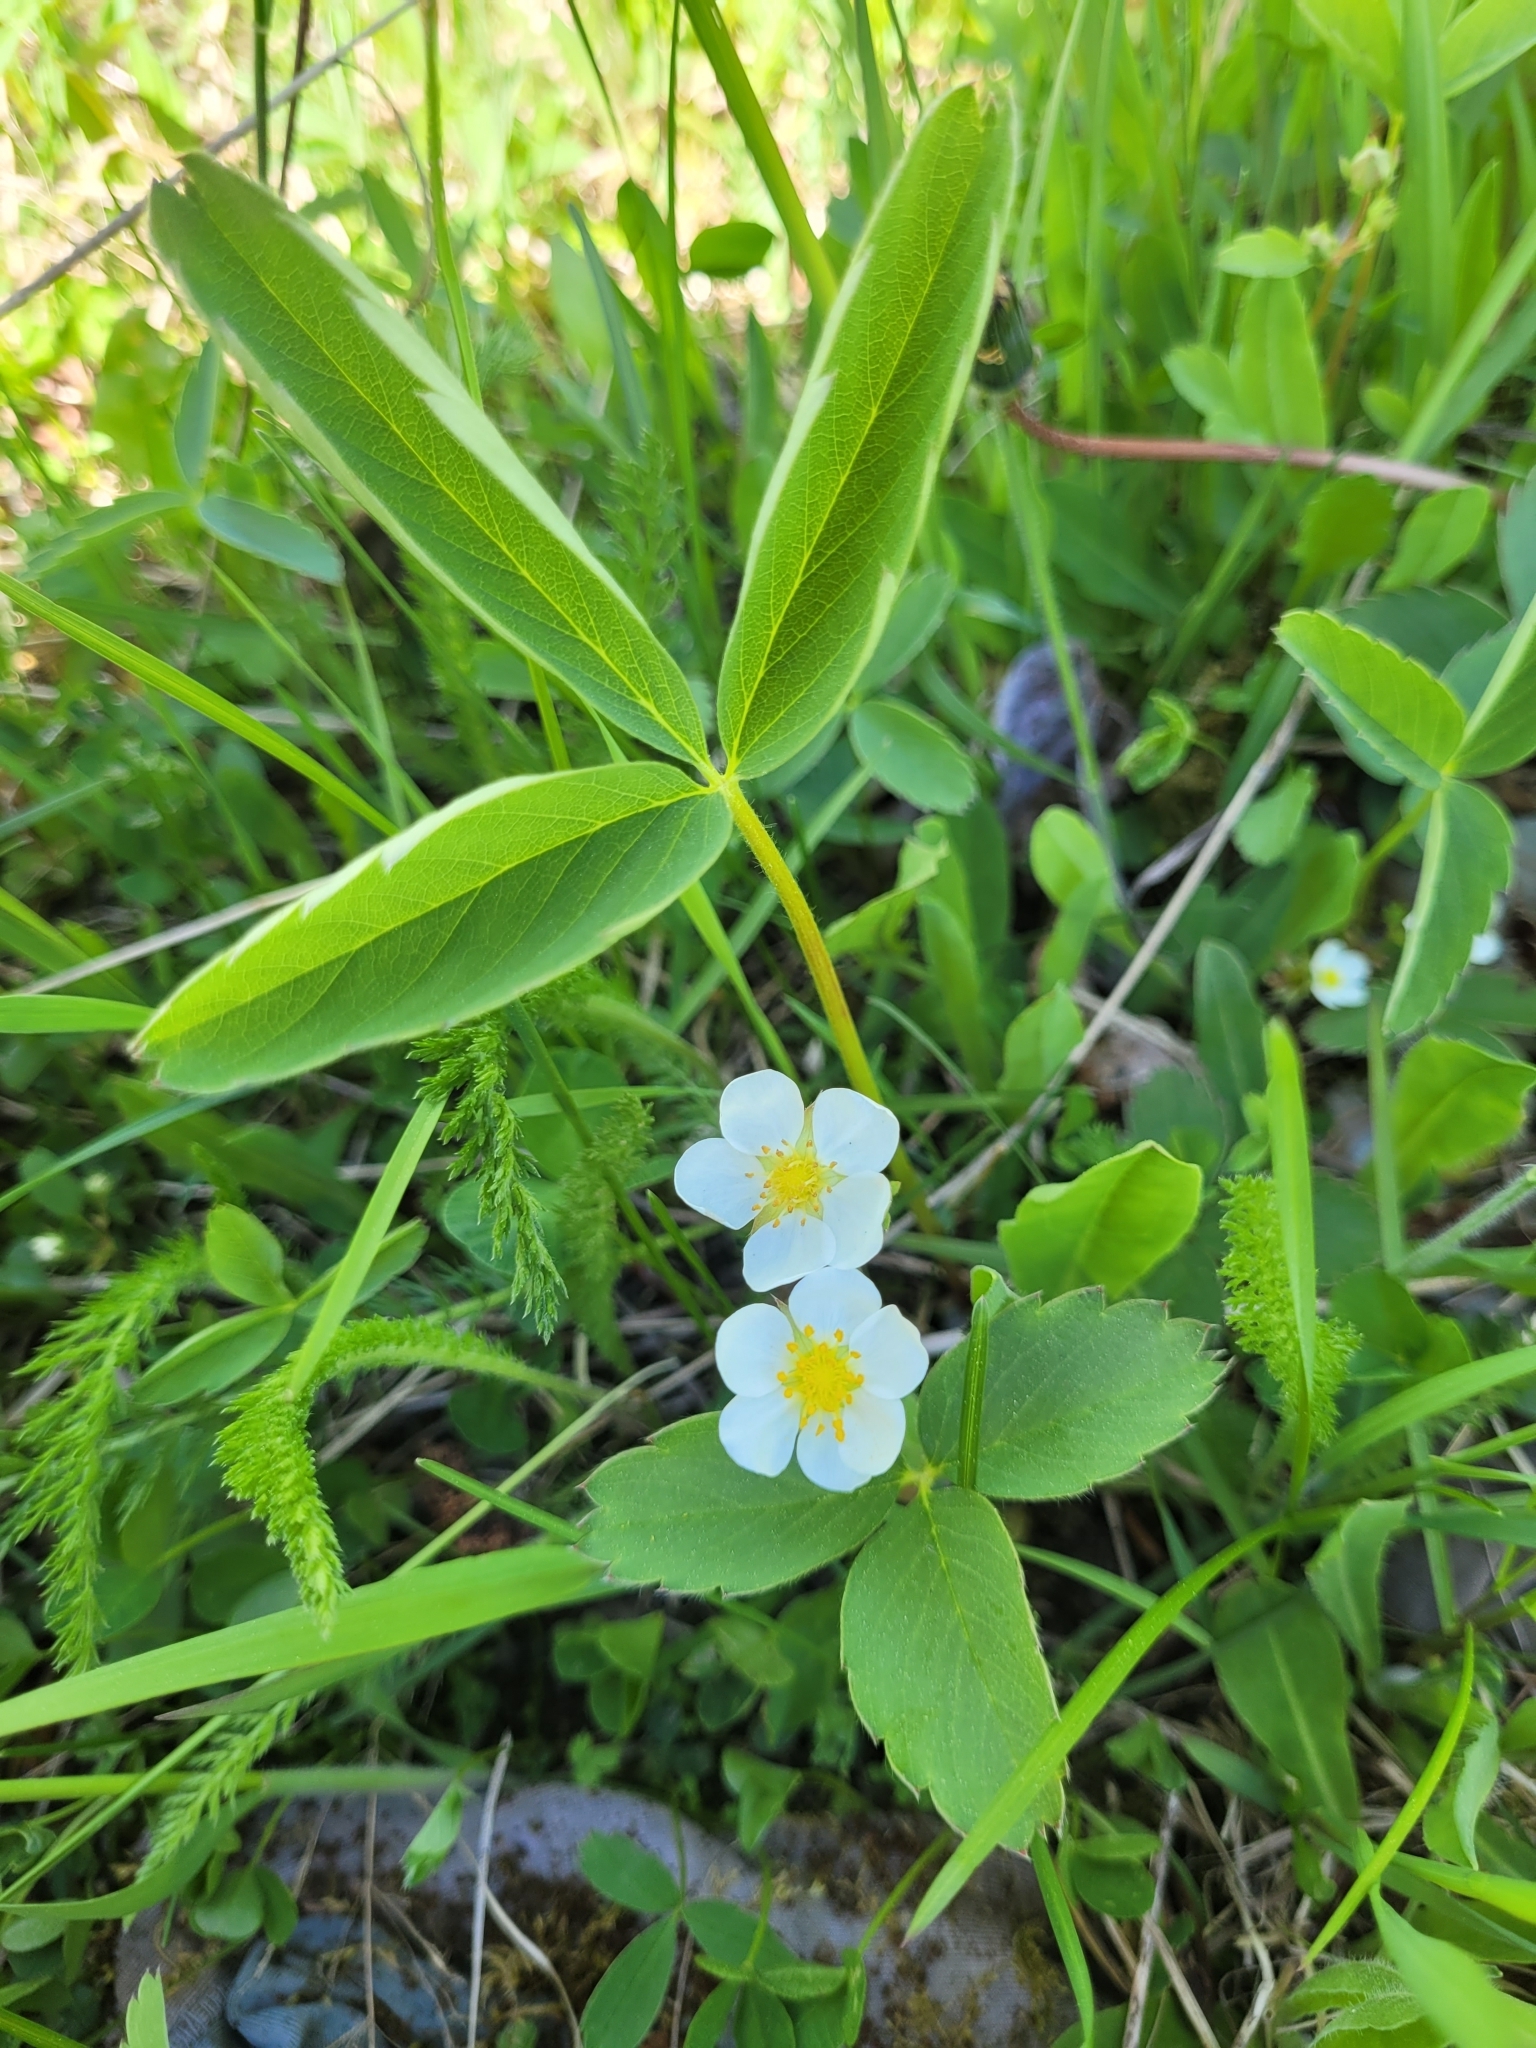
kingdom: Plantae
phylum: Tracheophyta
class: Magnoliopsida
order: Rosales
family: Rosaceae
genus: Fragaria
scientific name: Fragaria virginiana
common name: Thickleaved wild strawberry
